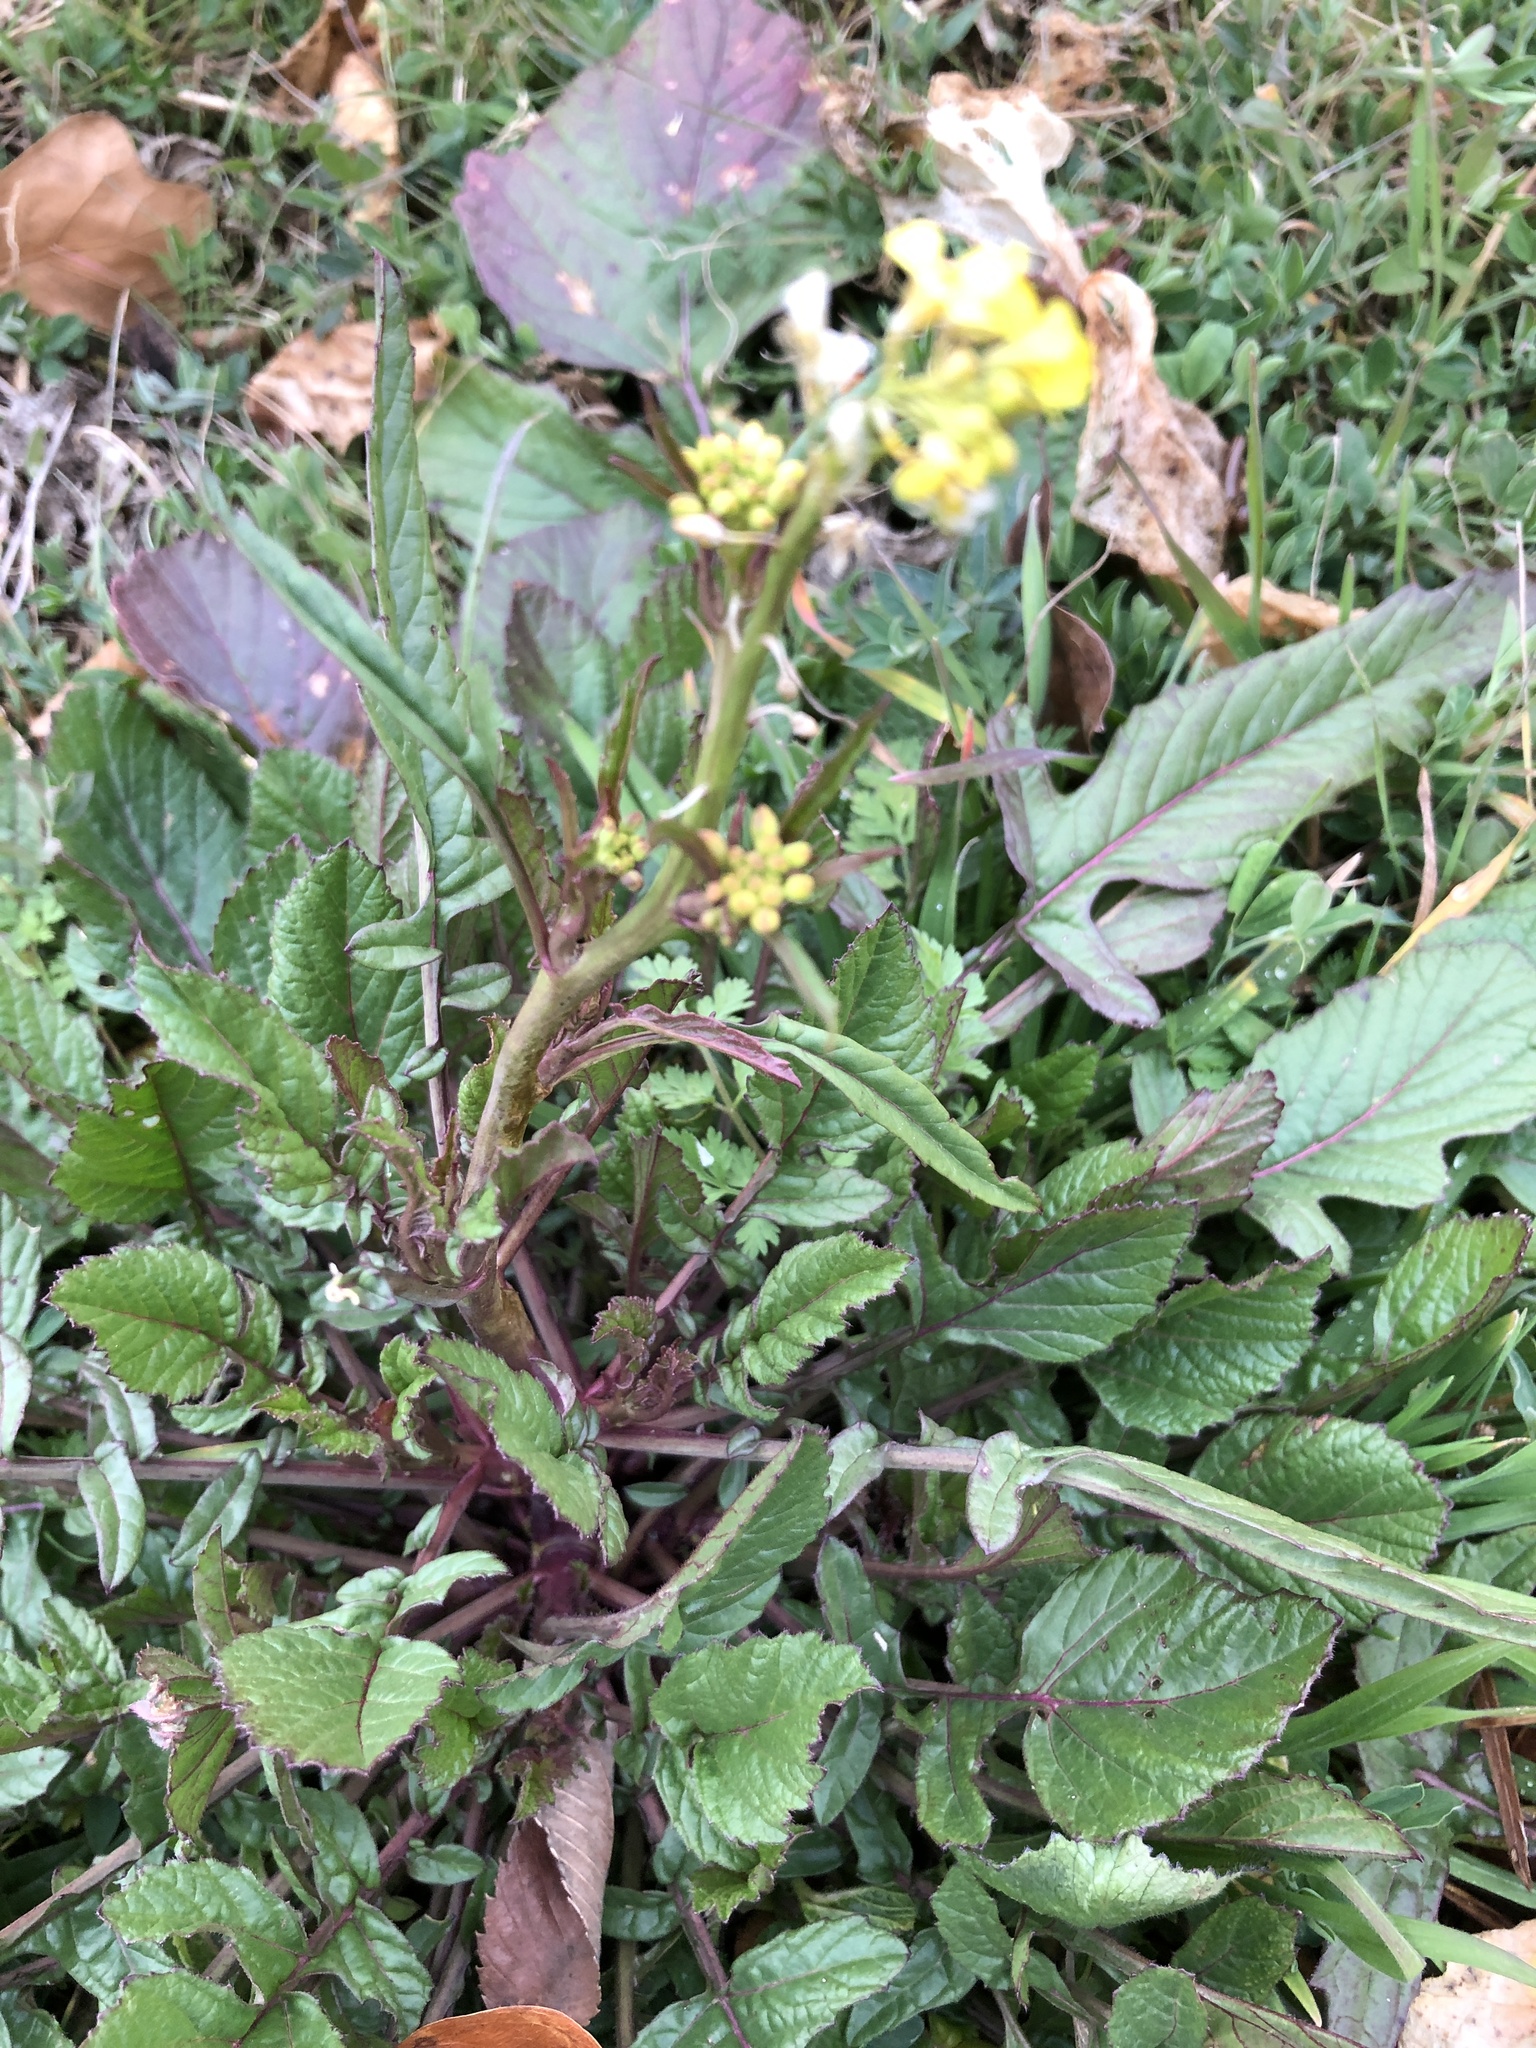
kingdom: Plantae
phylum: Tracheophyta
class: Magnoliopsida
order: Brassicales
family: Brassicaceae
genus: Rapistrum
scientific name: Rapistrum rugosum
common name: Annual bastardcabbage
